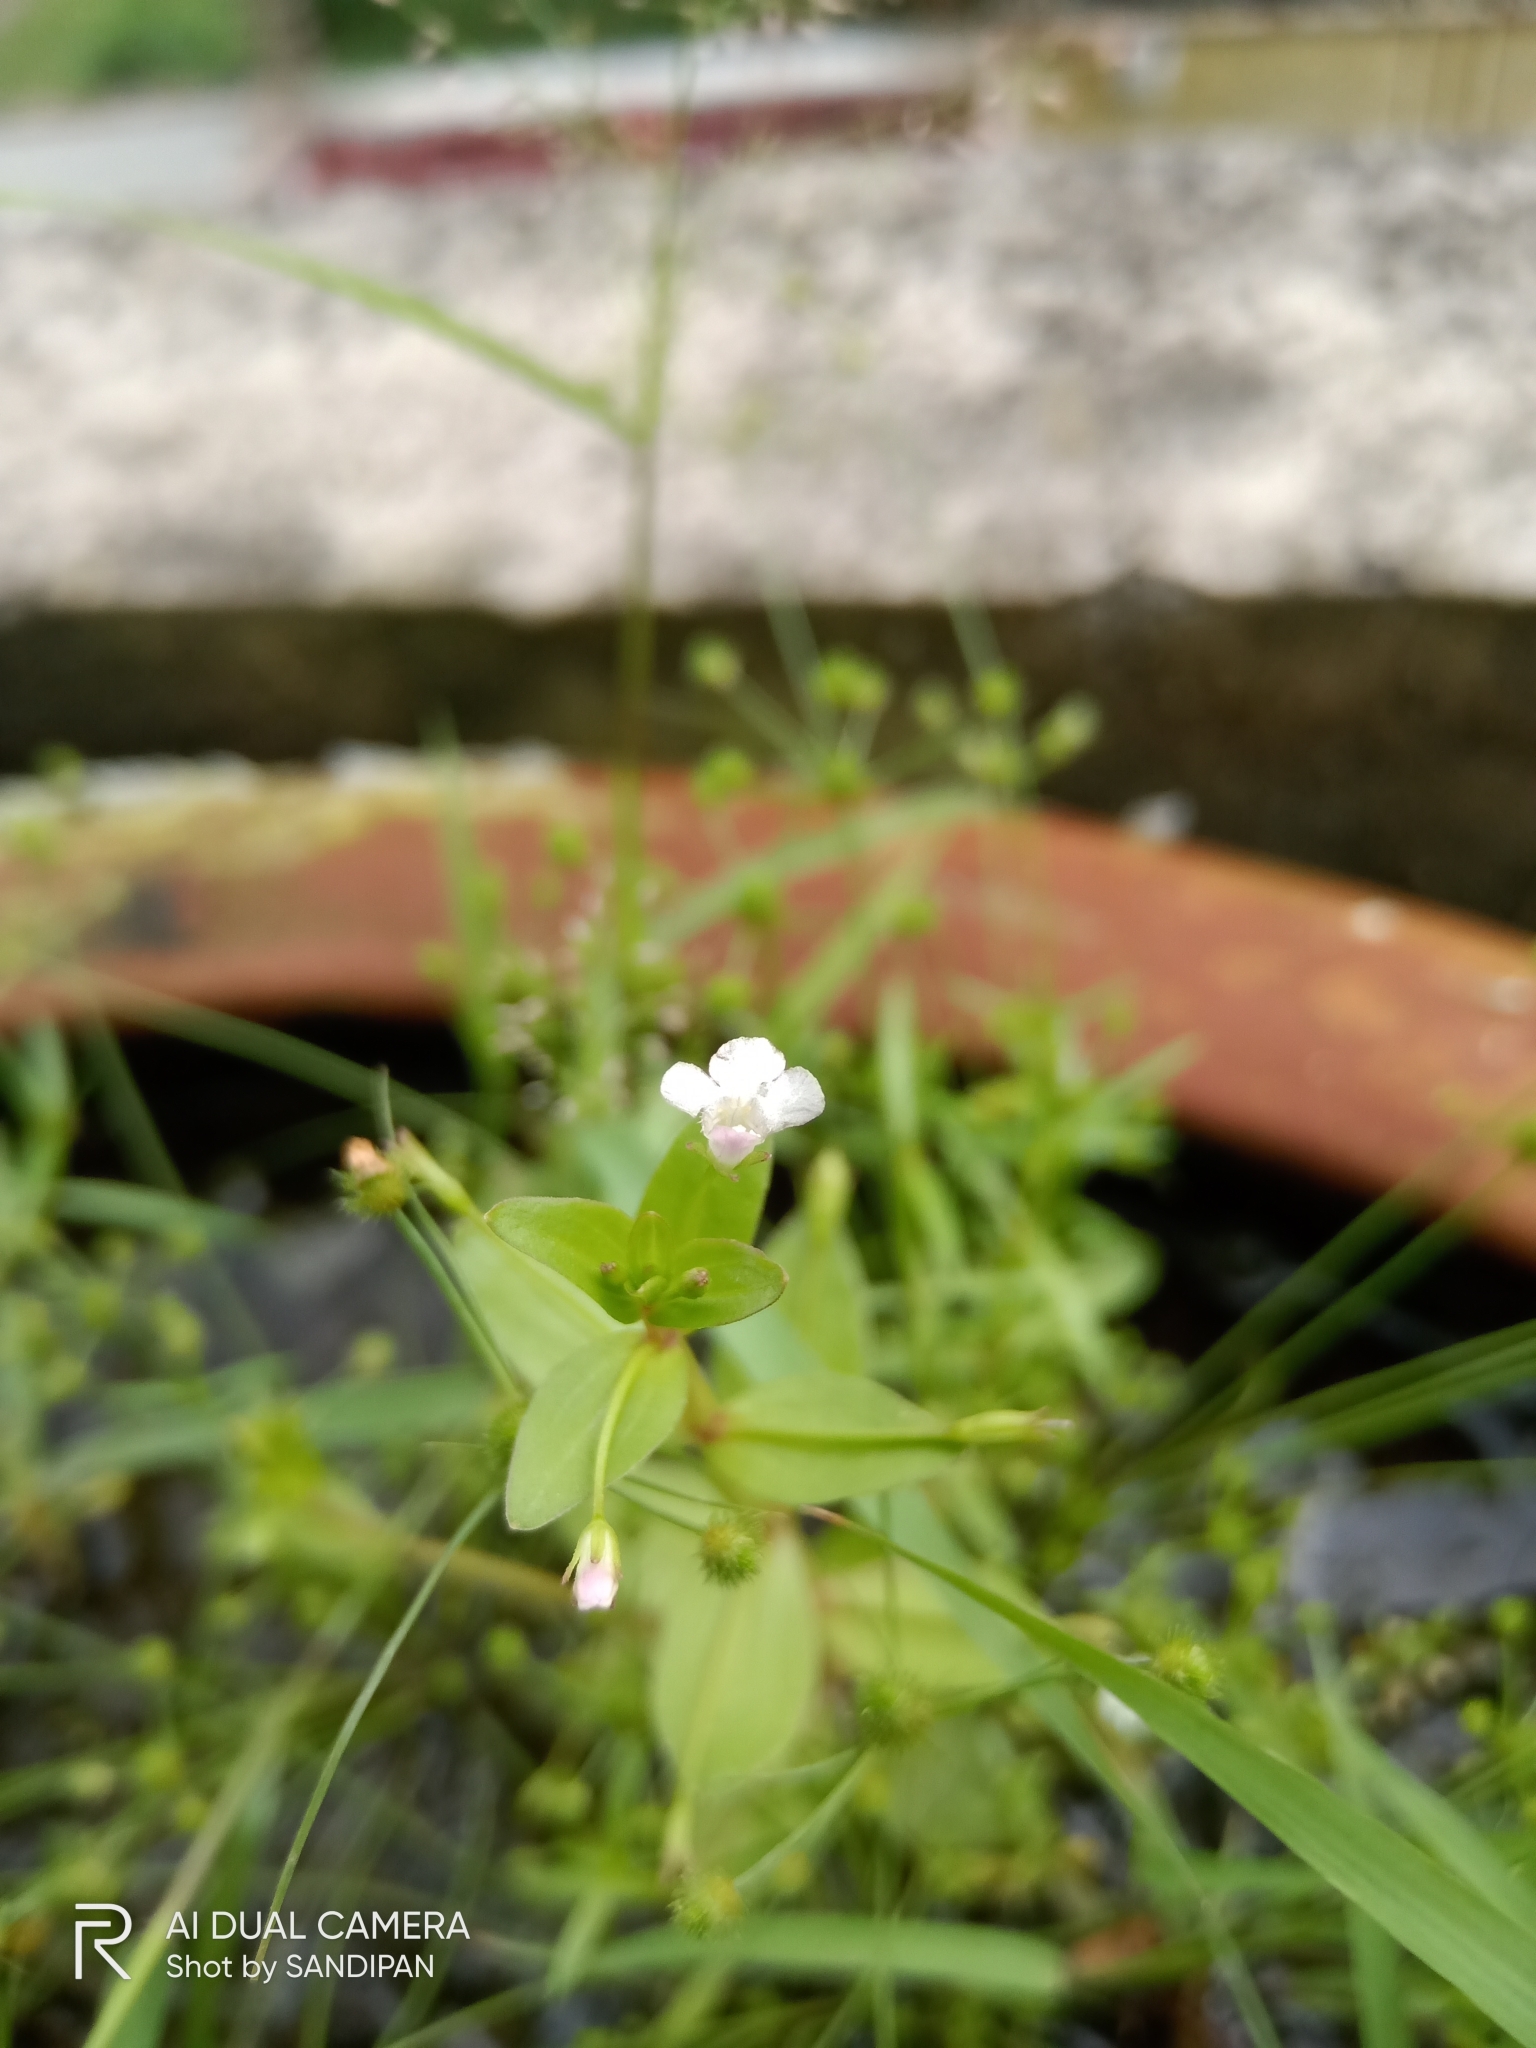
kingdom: Plantae
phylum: Tracheophyta
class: Magnoliopsida
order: Lamiales
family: Linderniaceae
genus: Lindernia
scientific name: Lindernia procumbens
